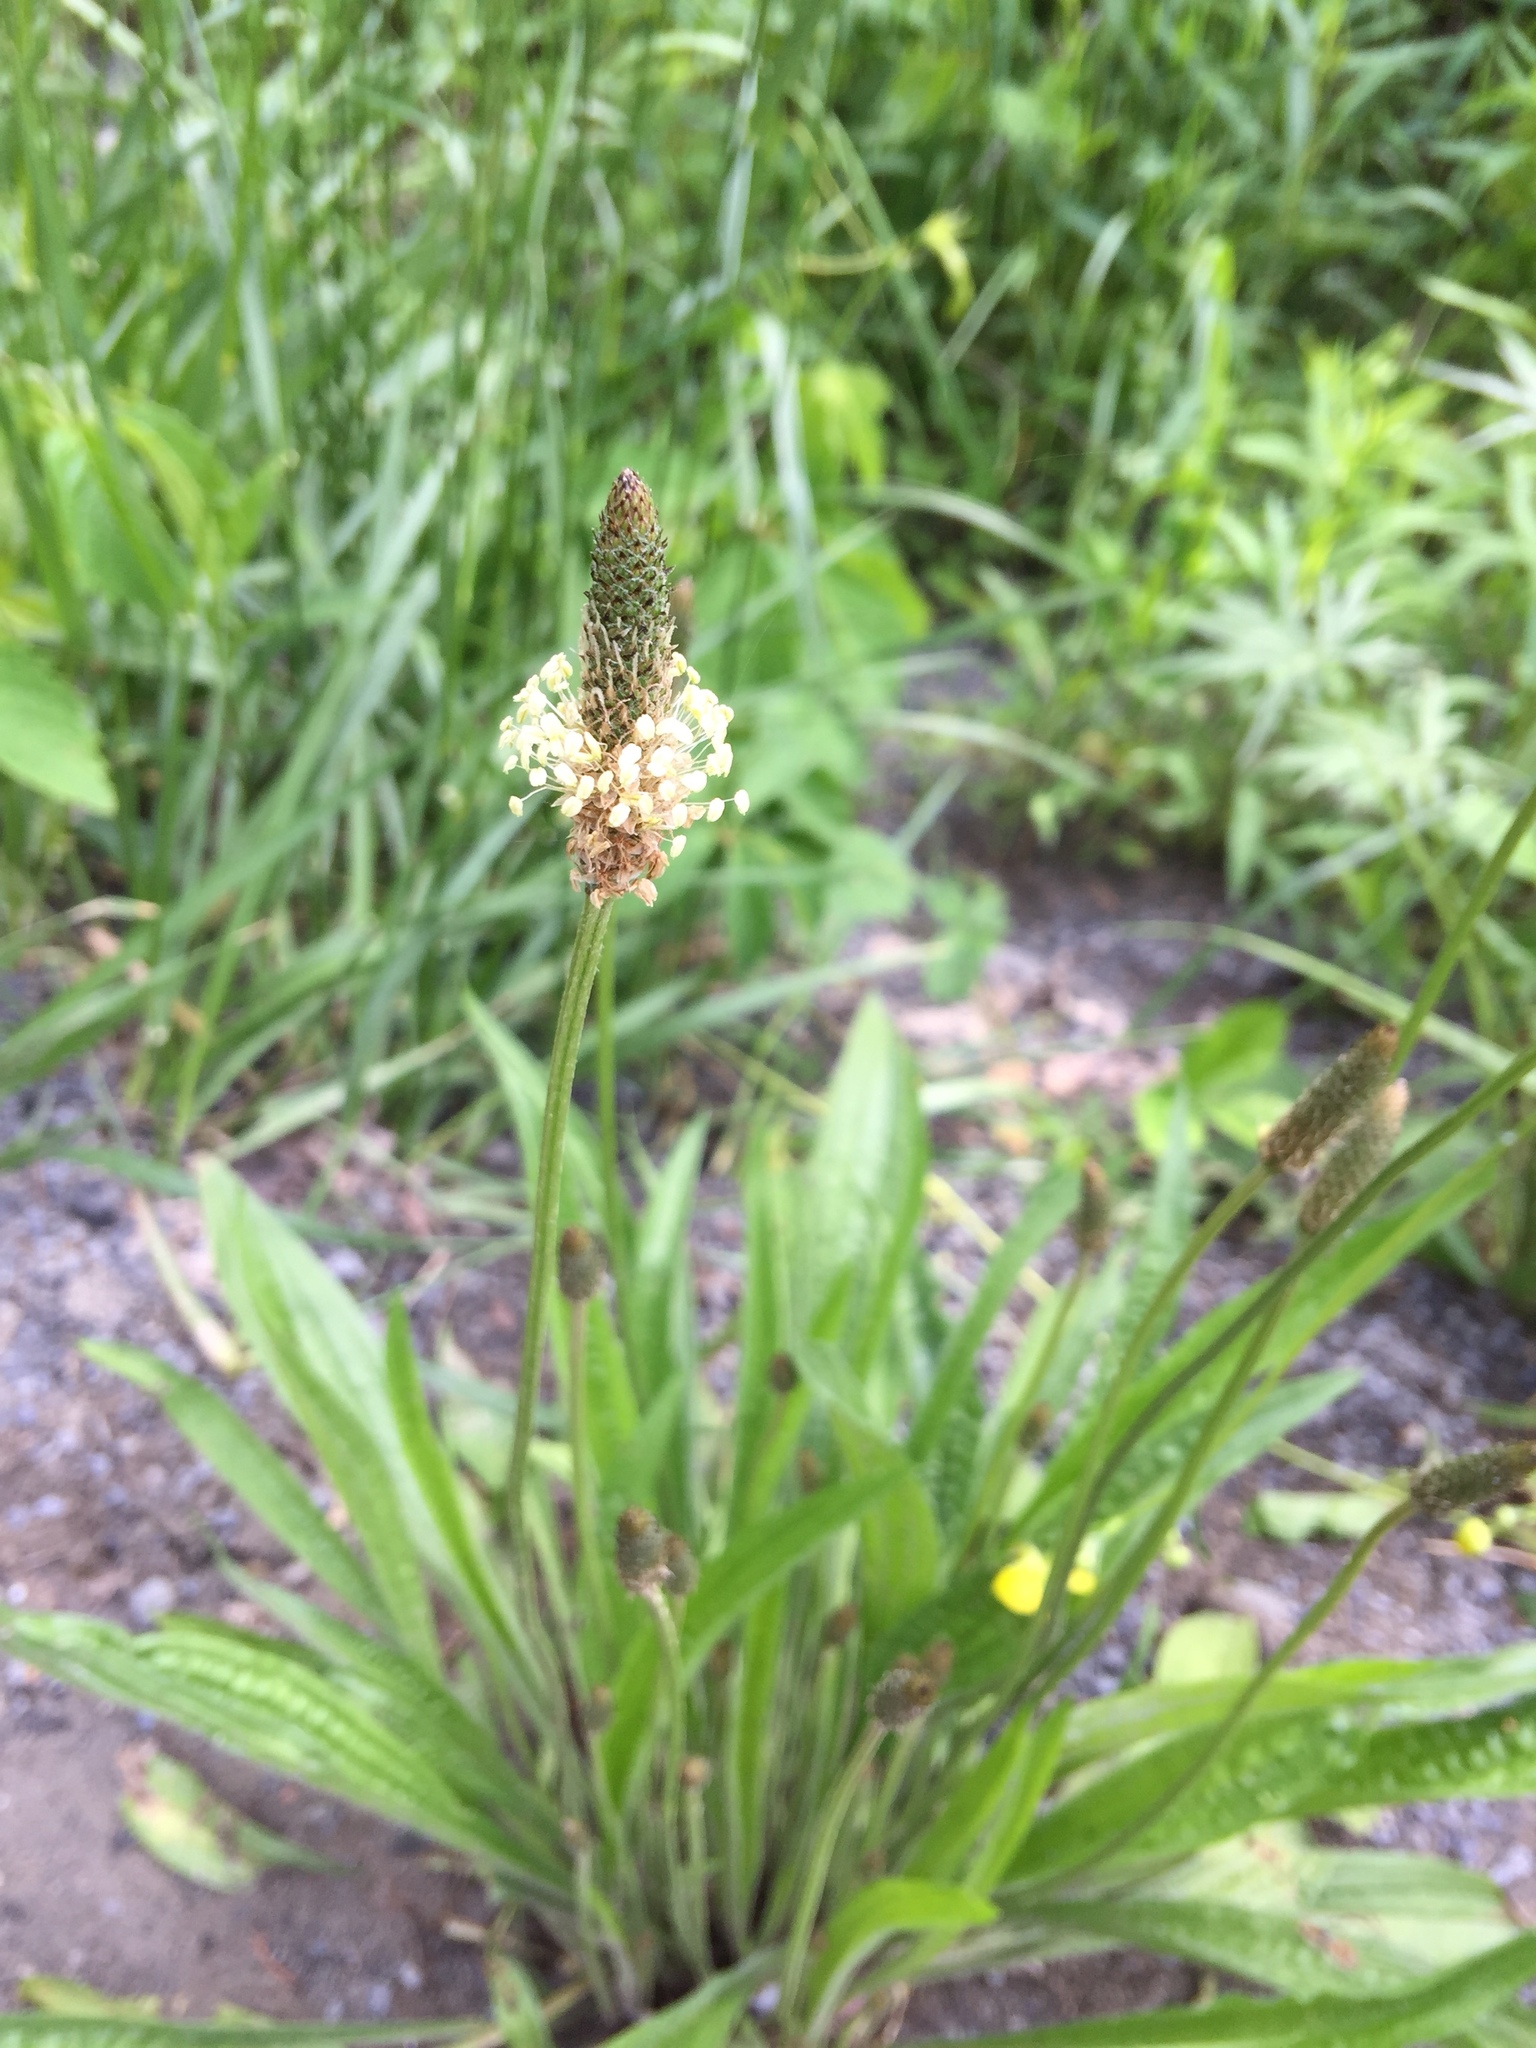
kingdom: Plantae
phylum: Tracheophyta
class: Magnoliopsida
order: Lamiales
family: Plantaginaceae
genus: Plantago
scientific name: Plantago lanceolata
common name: Ribwort plantain
